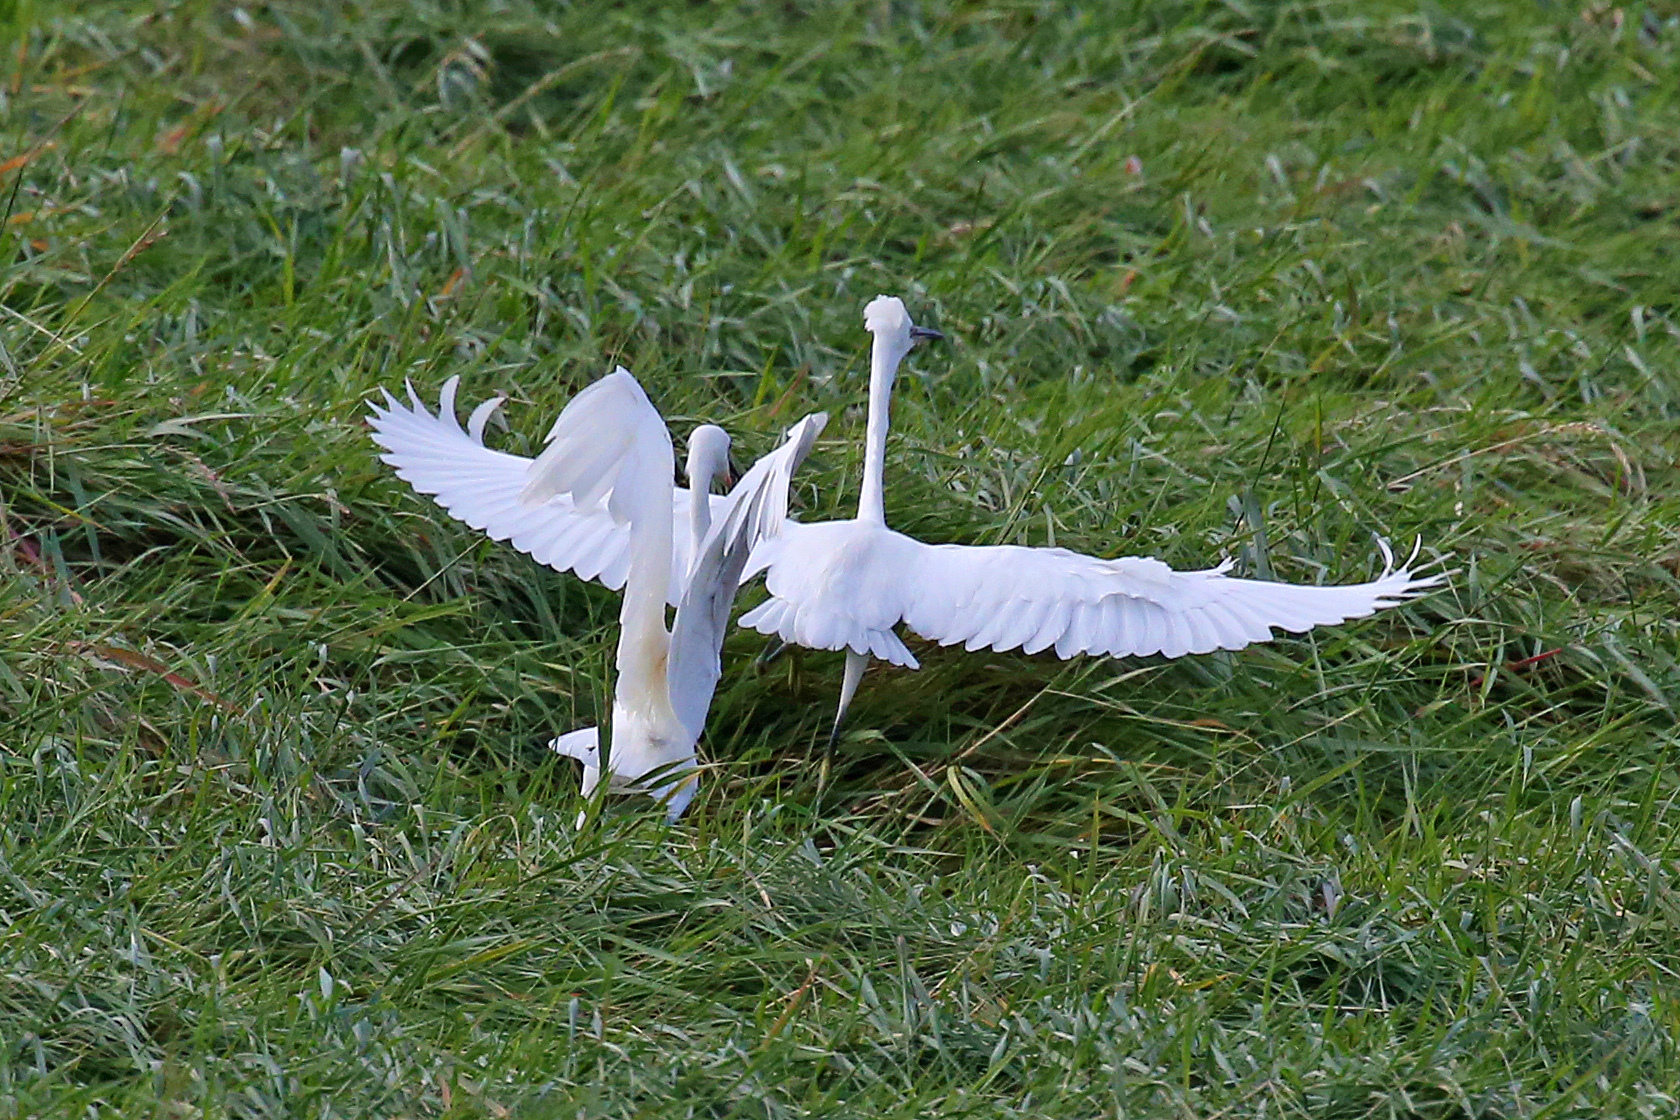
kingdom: Animalia
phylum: Chordata
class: Aves
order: Pelecaniformes
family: Ardeidae
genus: Egretta
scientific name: Egretta garzetta
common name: Little egret
